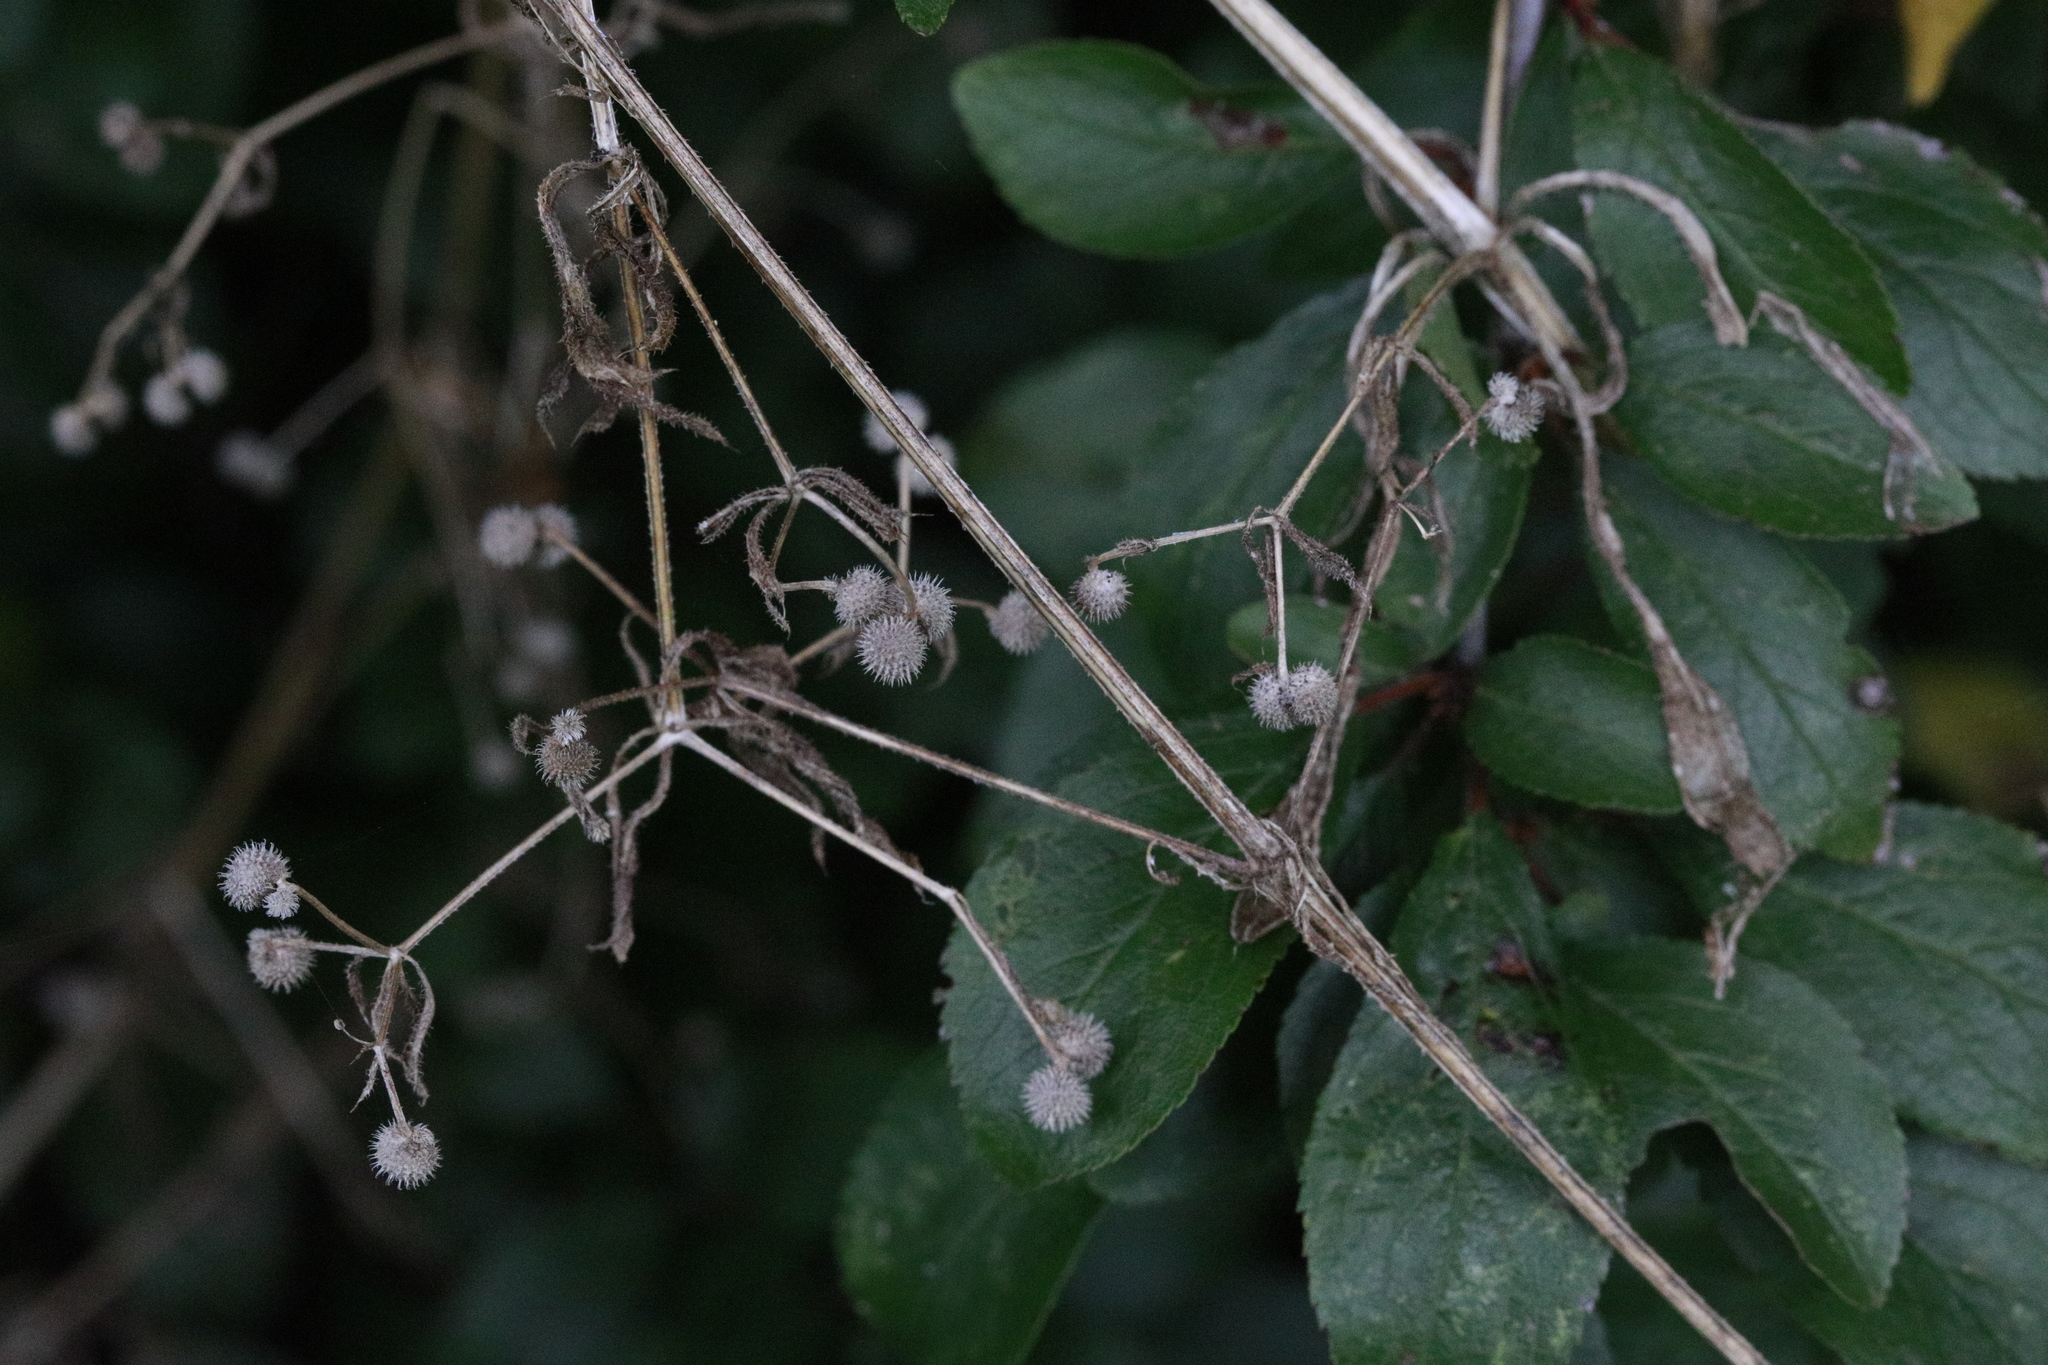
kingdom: Plantae
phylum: Tracheophyta
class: Magnoliopsida
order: Gentianales
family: Rubiaceae
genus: Galium
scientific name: Galium aparine
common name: Cleavers
